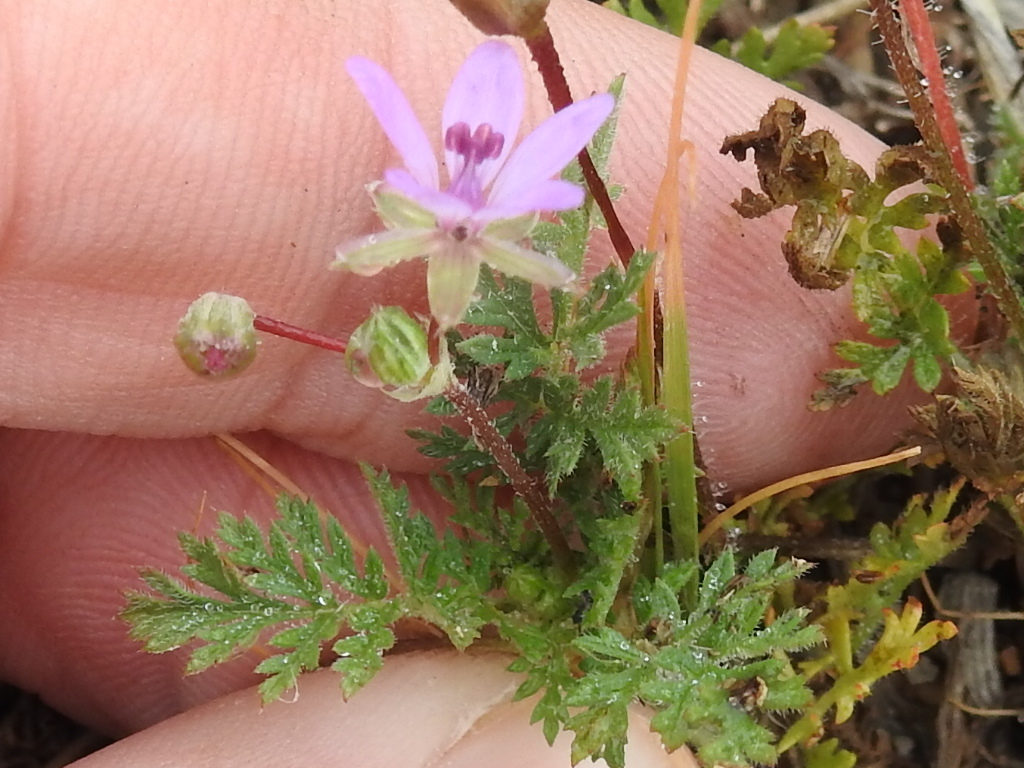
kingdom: Plantae
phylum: Tracheophyta
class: Magnoliopsida
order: Geraniales
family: Geraniaceae
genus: Erodium
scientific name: Erodium cicutarium
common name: Common stork's-bill
